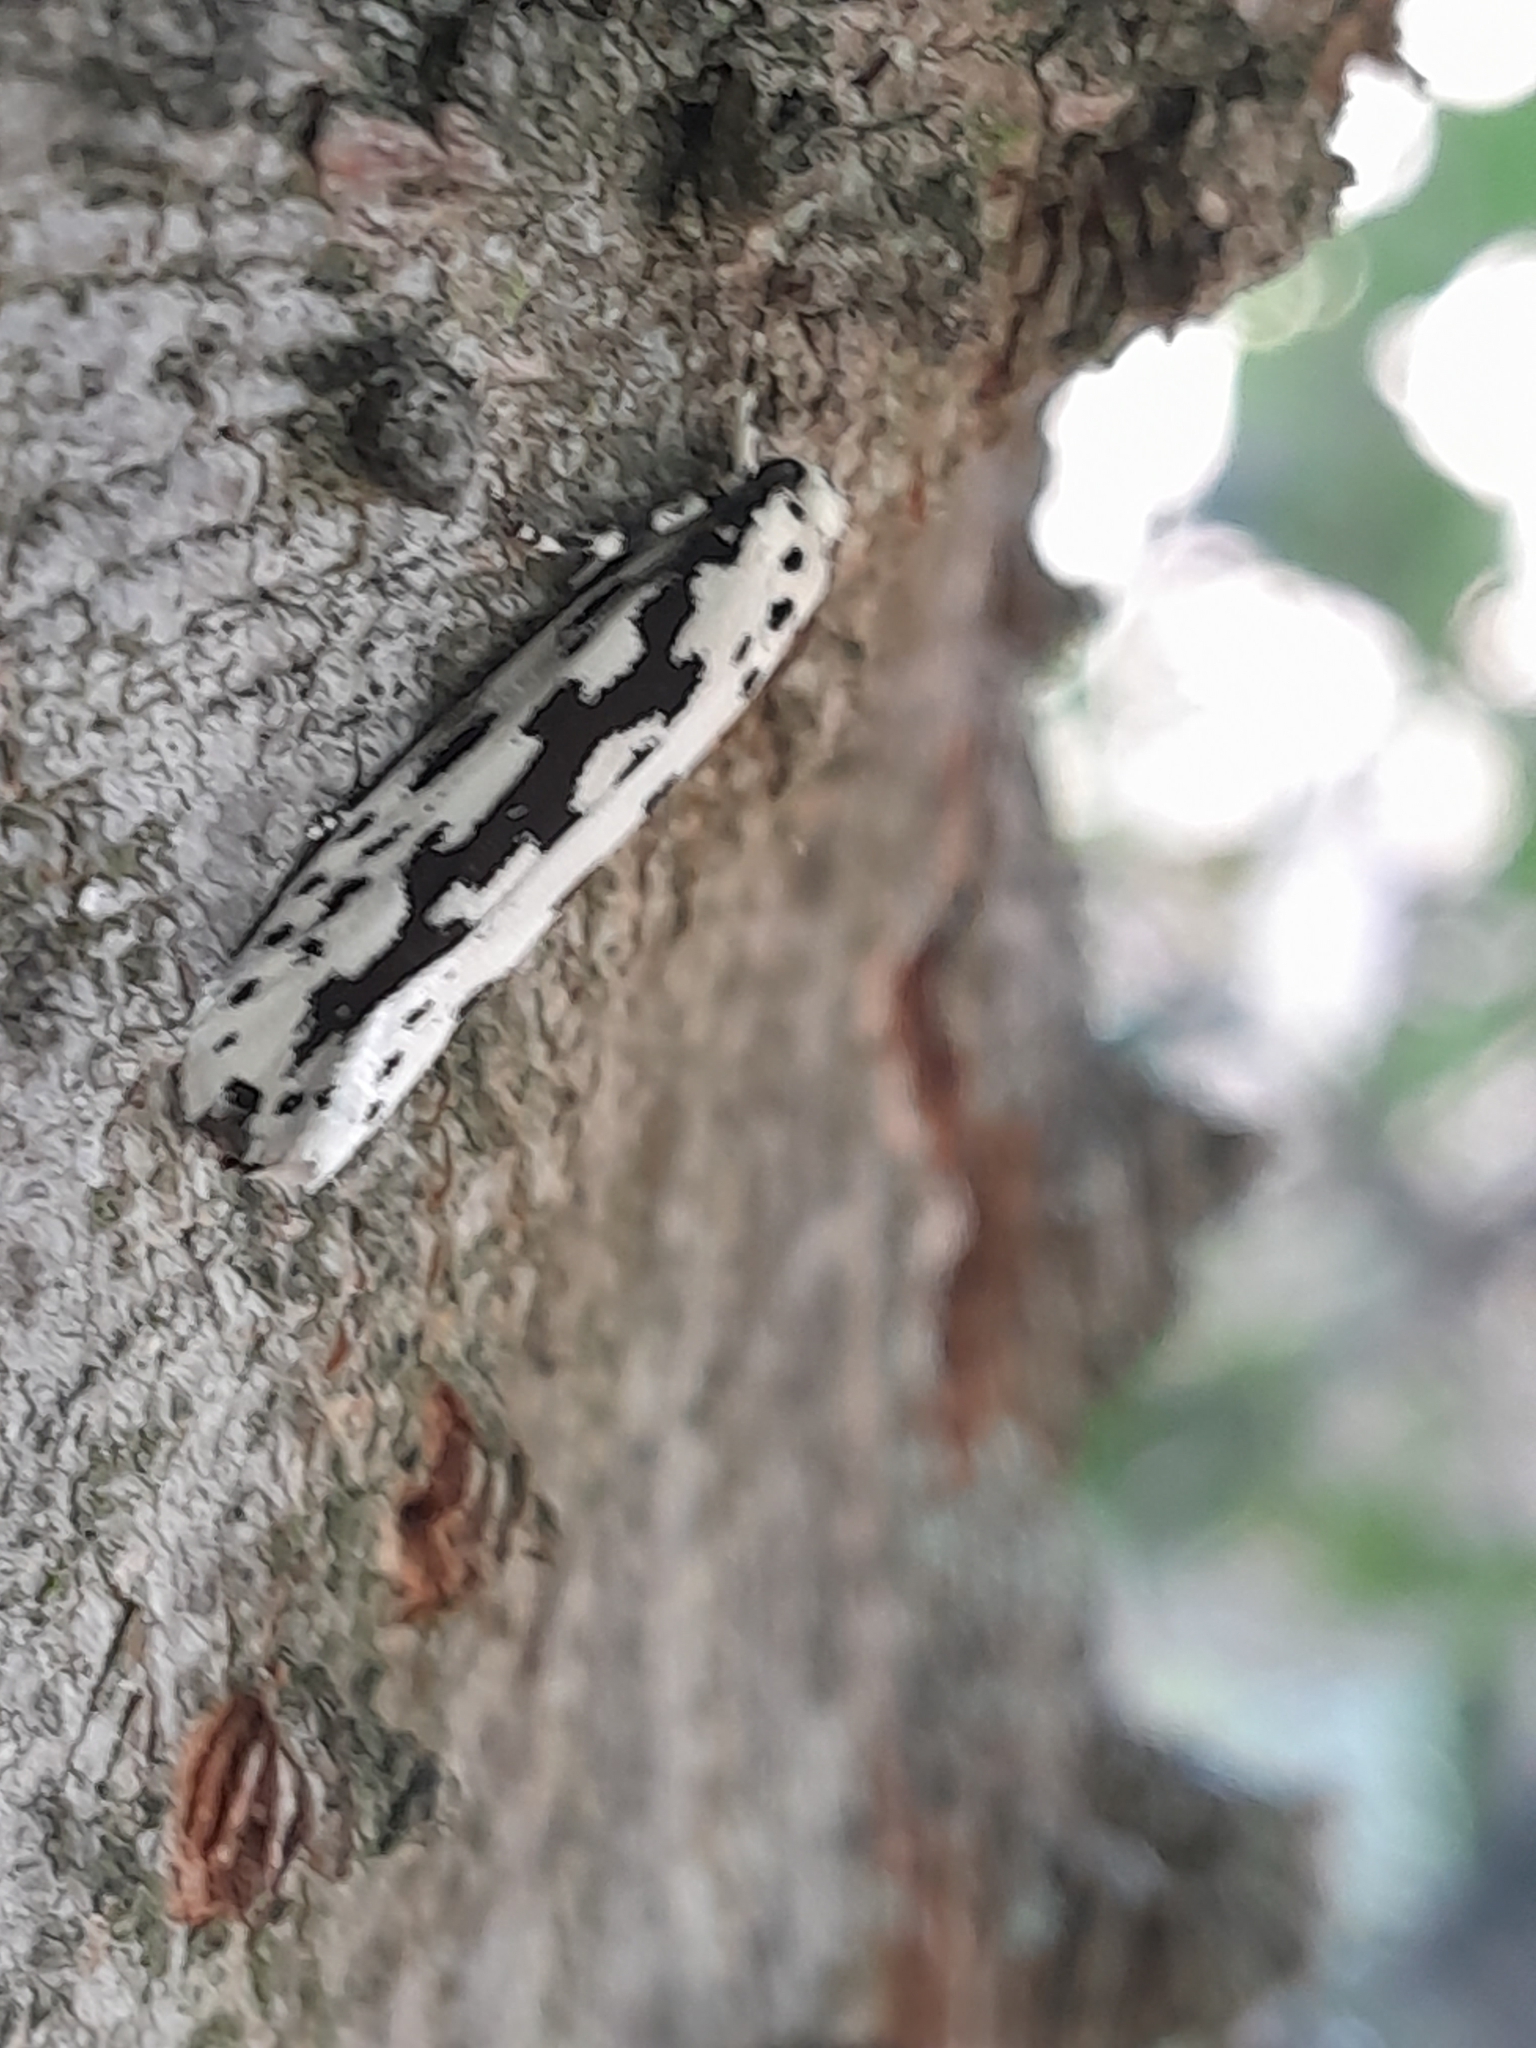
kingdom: Animalia
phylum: Arthropoda
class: Insecta
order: Lepidoptera
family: Ethmiidae
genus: Ethmia
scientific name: Ethmia pusiella
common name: Striped ermel
